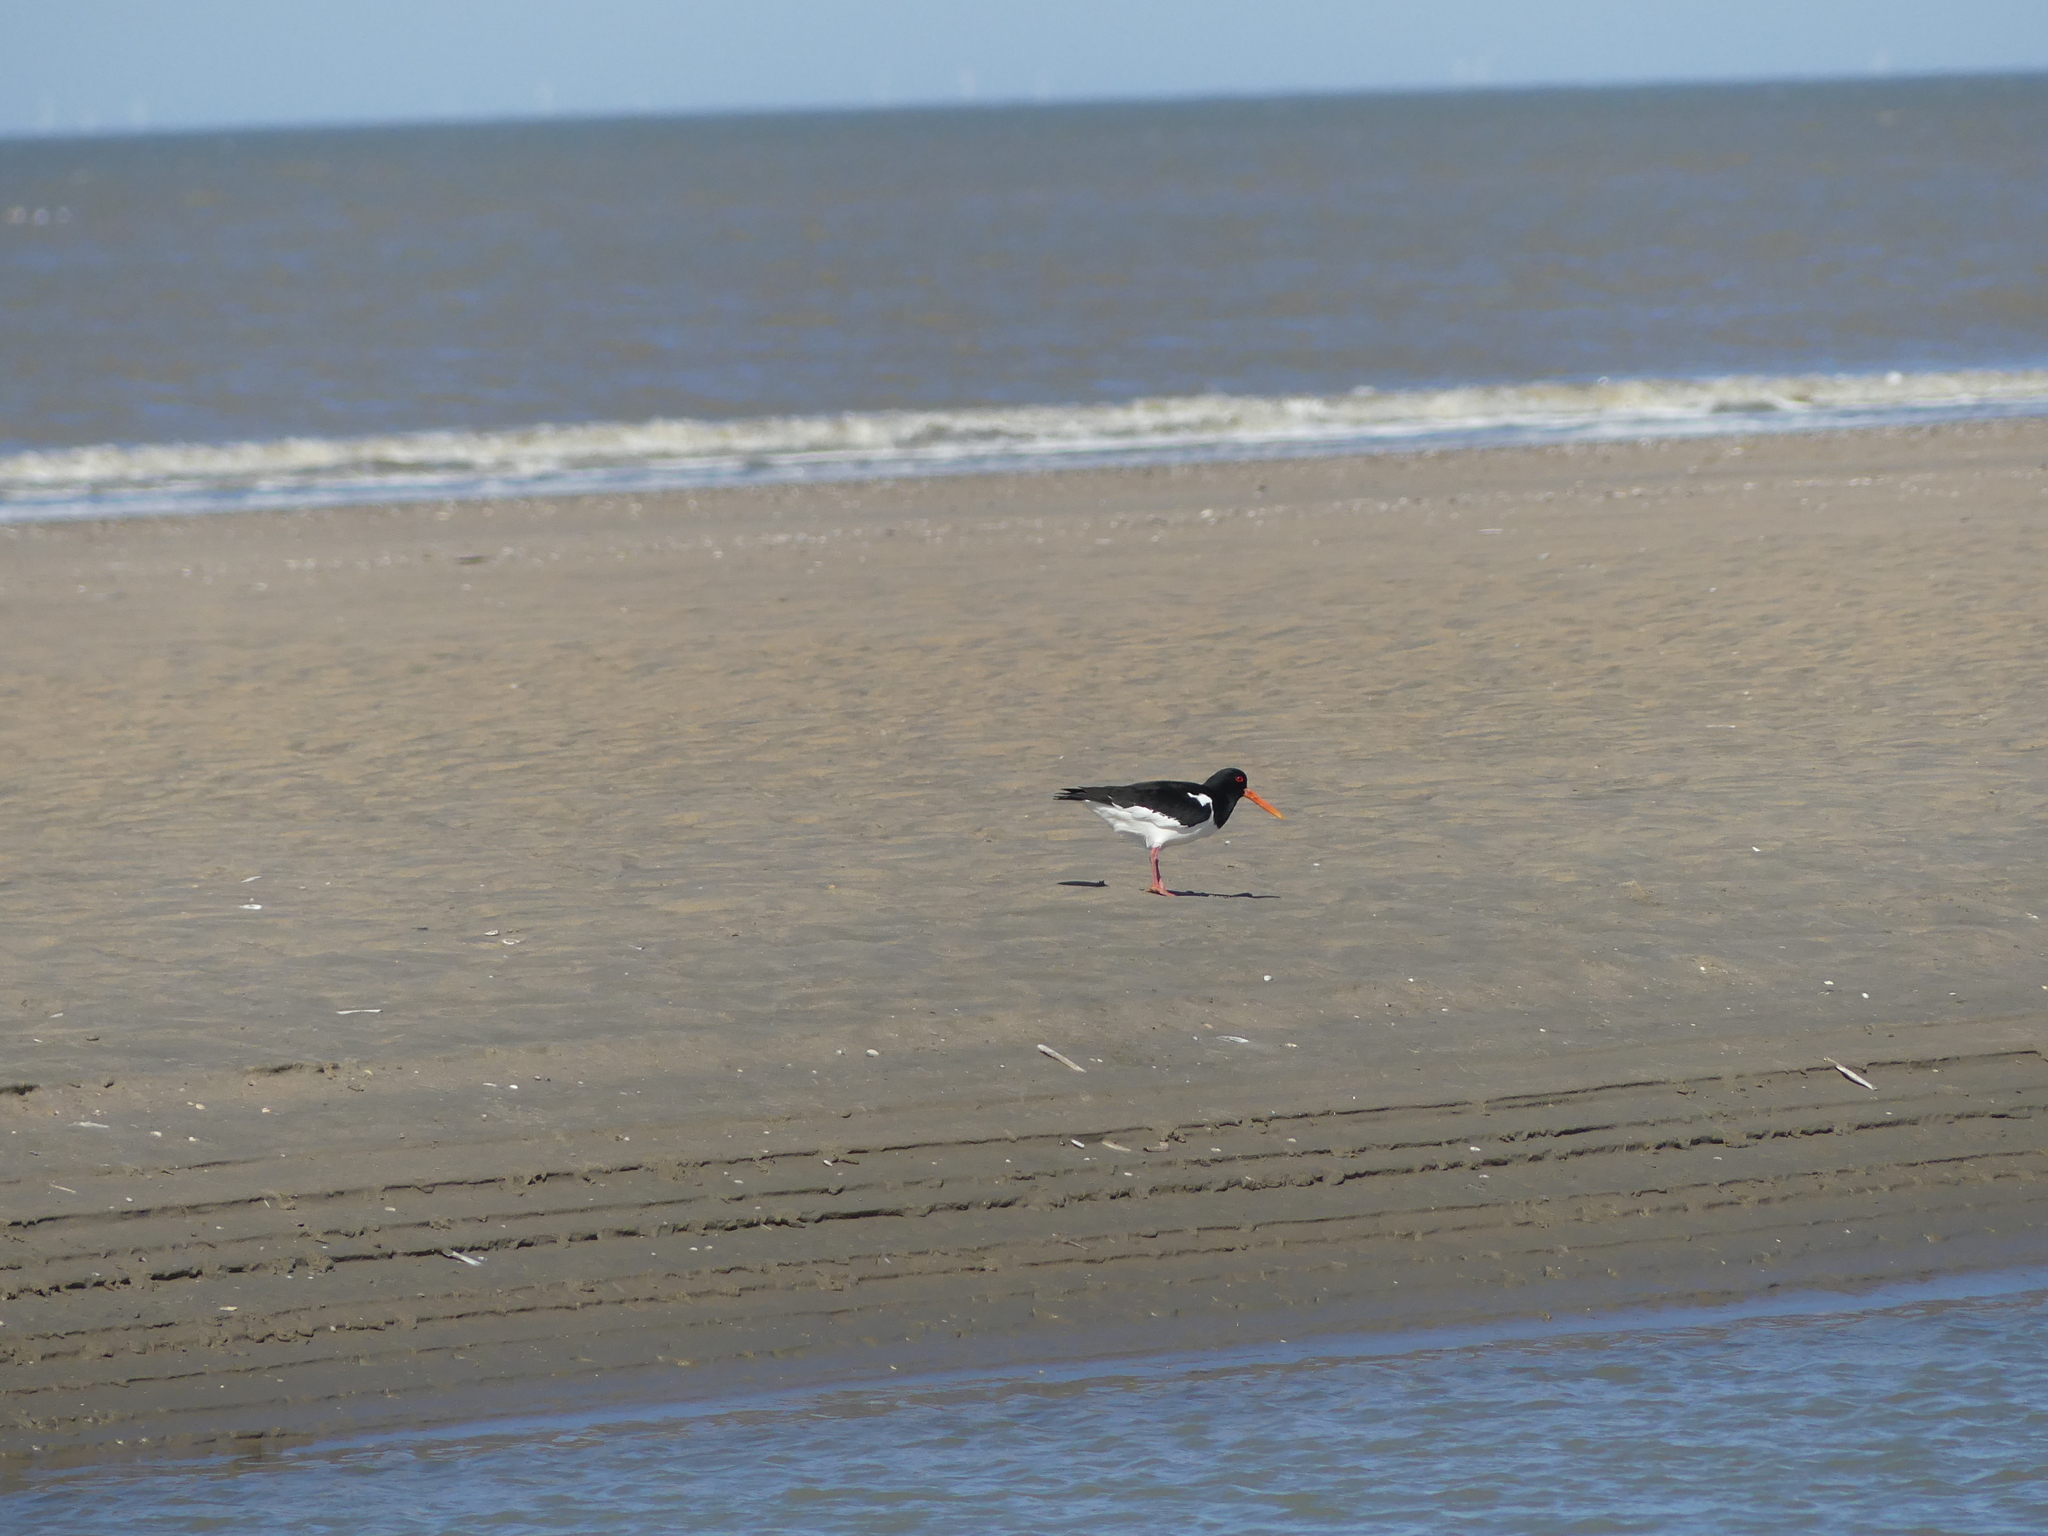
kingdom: Animalia
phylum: Chordata
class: Aves
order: Charadriiformes
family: Haematopodidae
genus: Haematopus
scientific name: Haematopus ostralegus
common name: Eurasian oystercatcher
